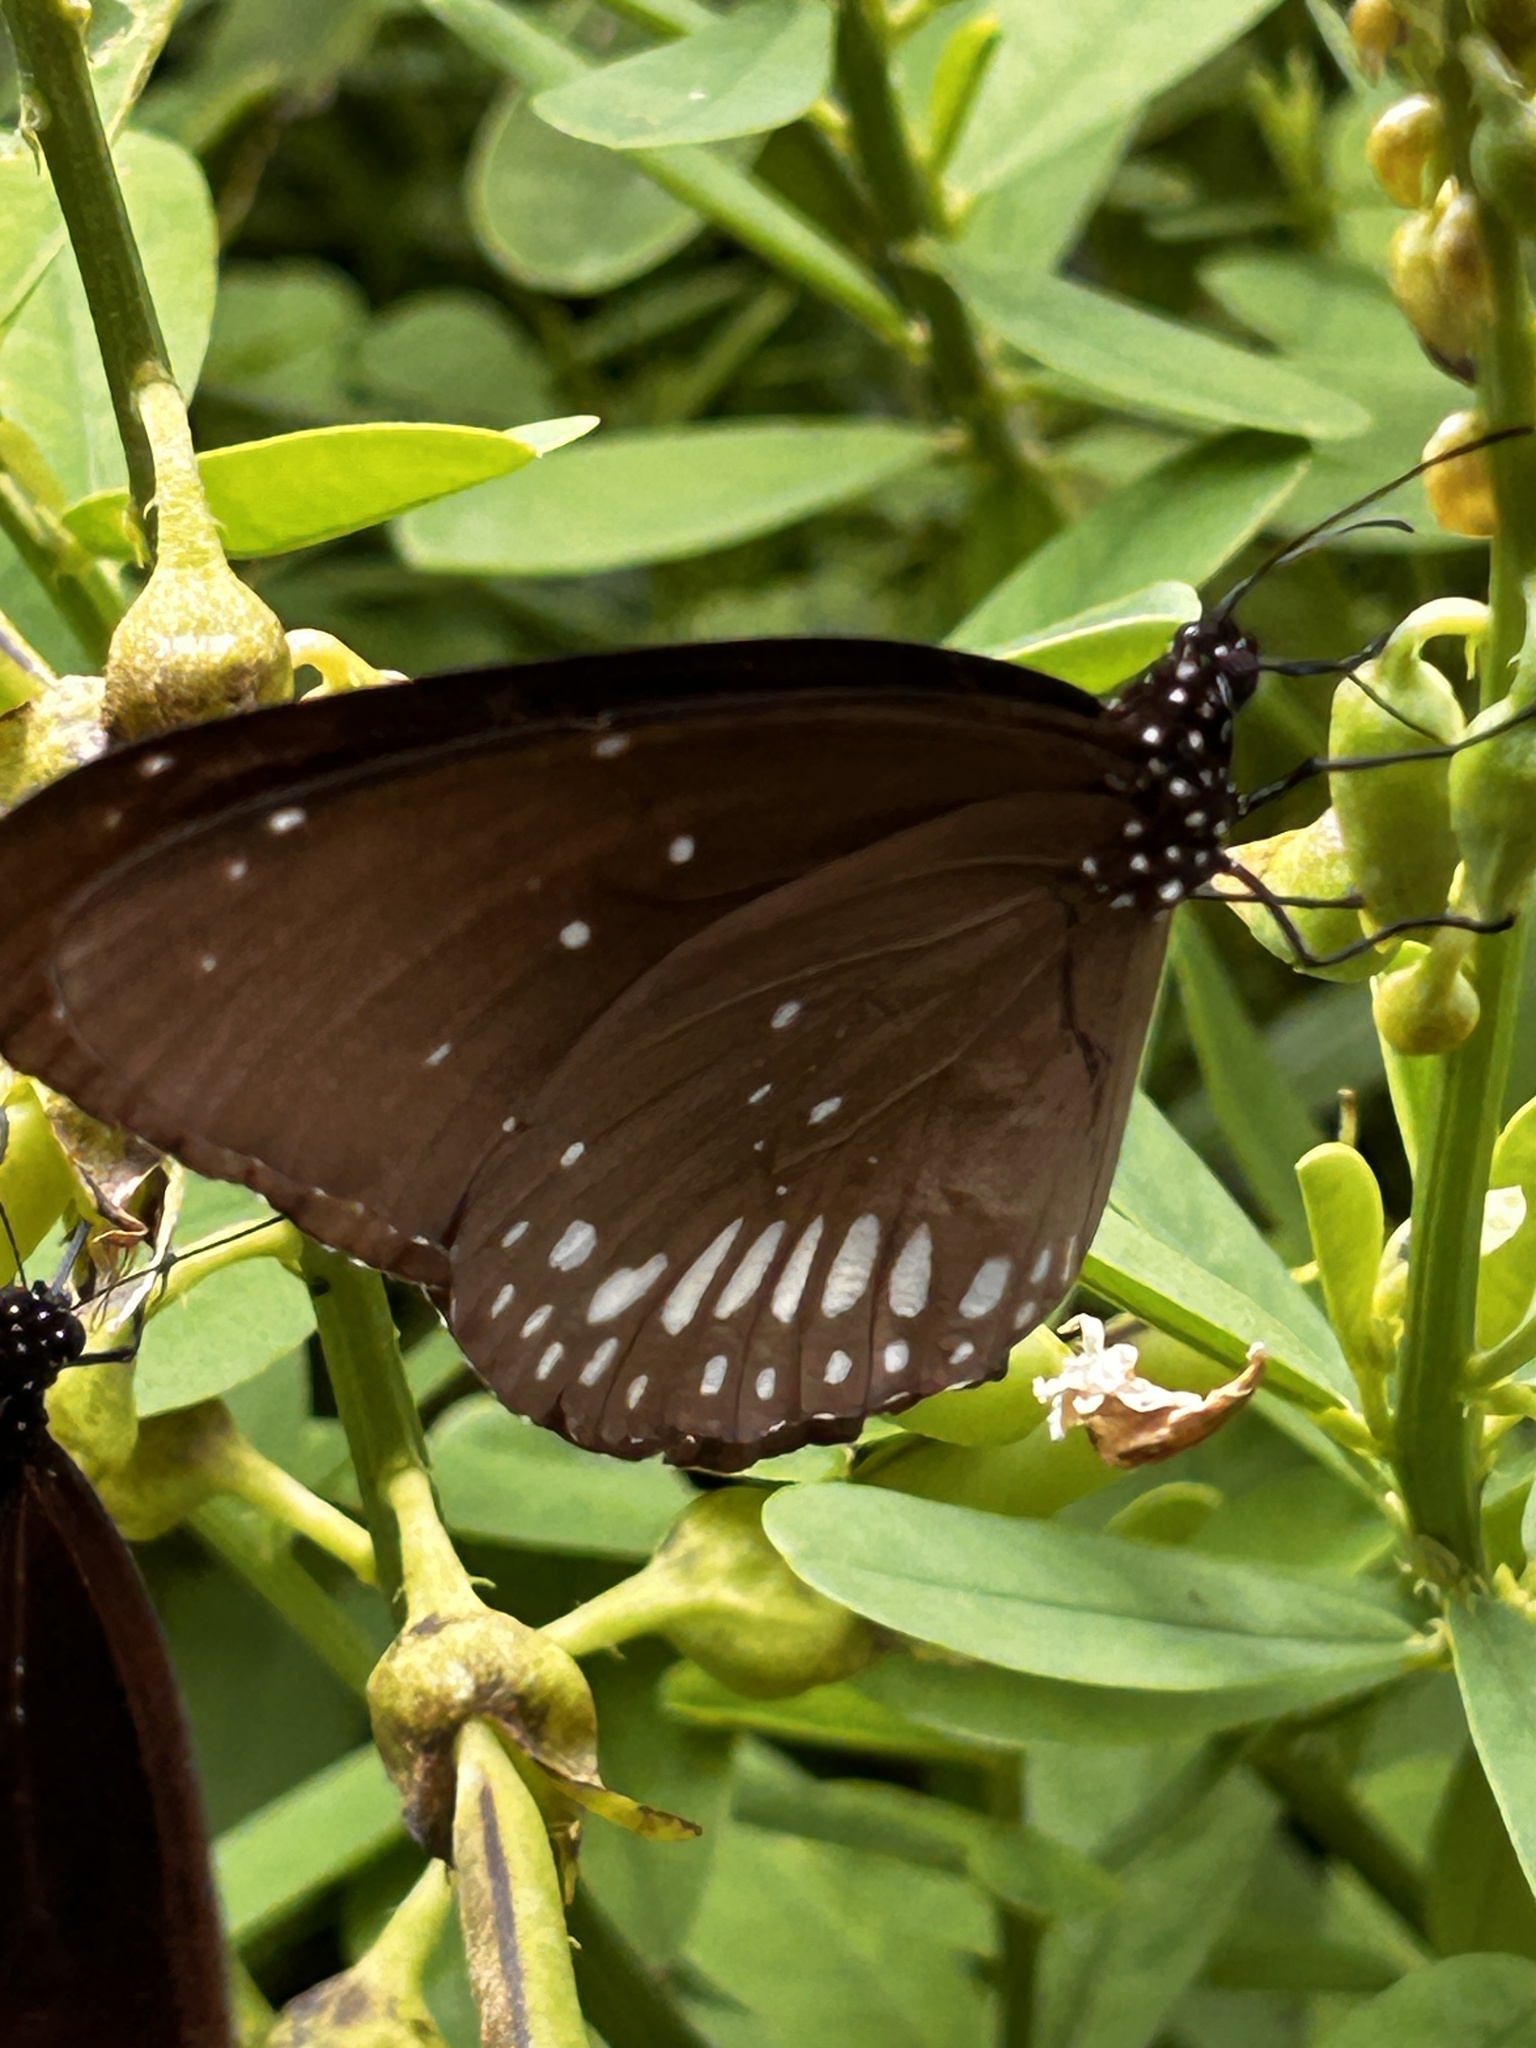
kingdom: Animalia
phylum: Arthropoda
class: Insecta
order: Lepidoptera
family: Nymphalidae
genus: Euploea
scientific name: Euploea core
